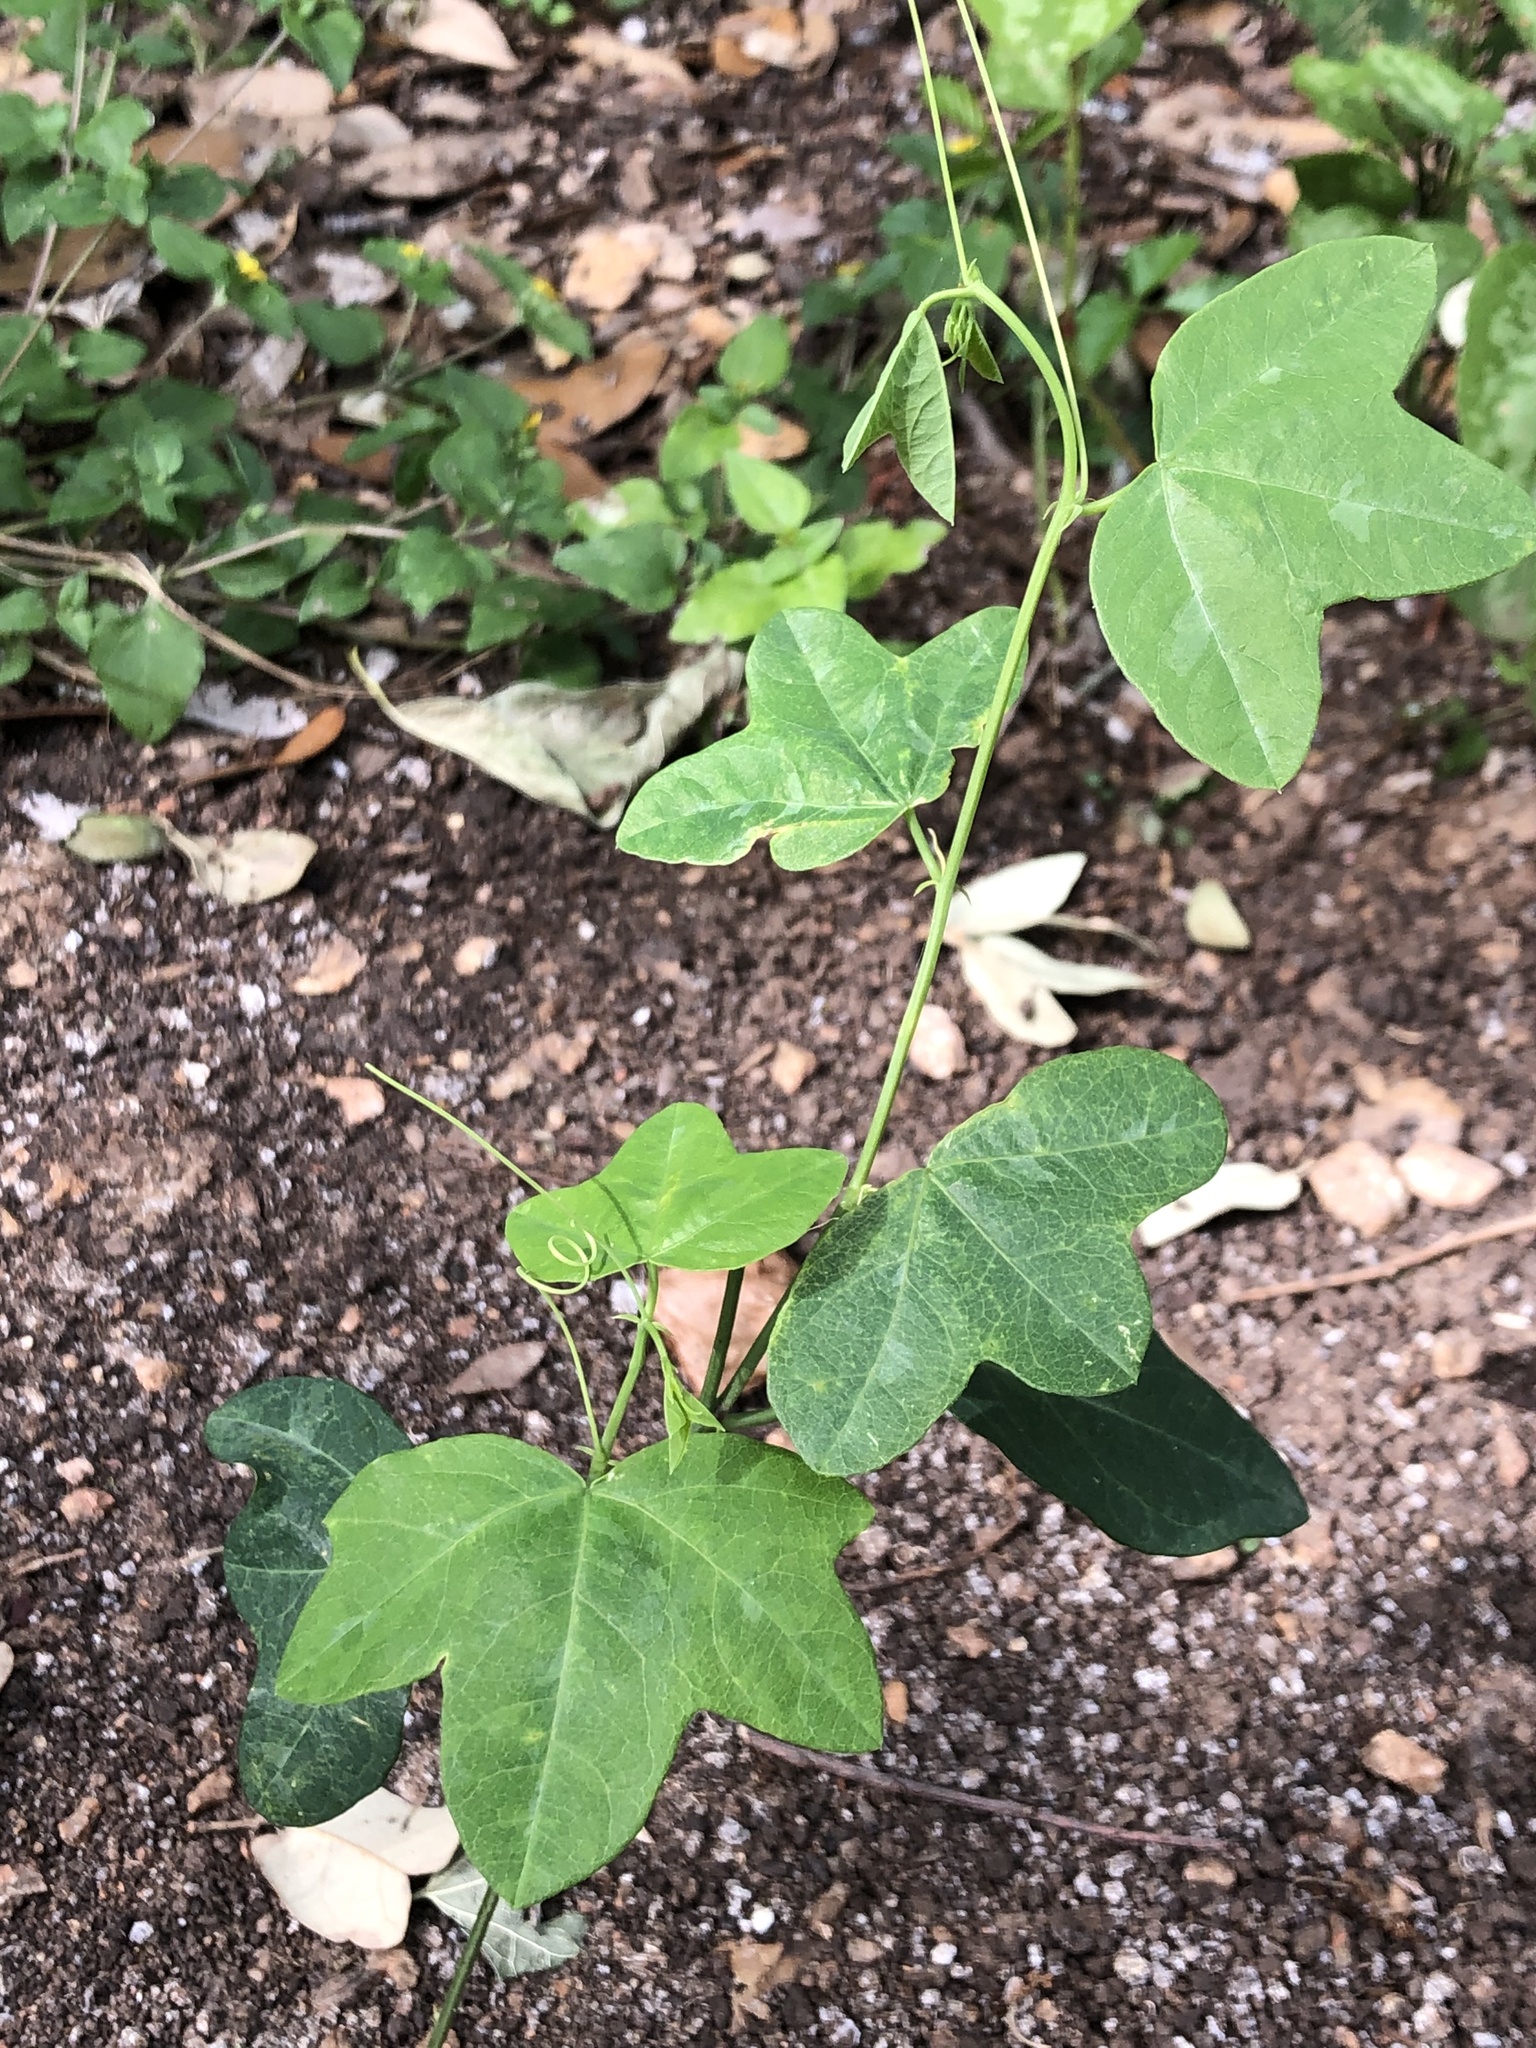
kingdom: Plantae
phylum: Tracheophyta
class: Magnoliopsida
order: Malpighiales
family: Passifloraceae
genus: Passiflora
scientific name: Passiflora lutea
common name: Yellow passionflower
